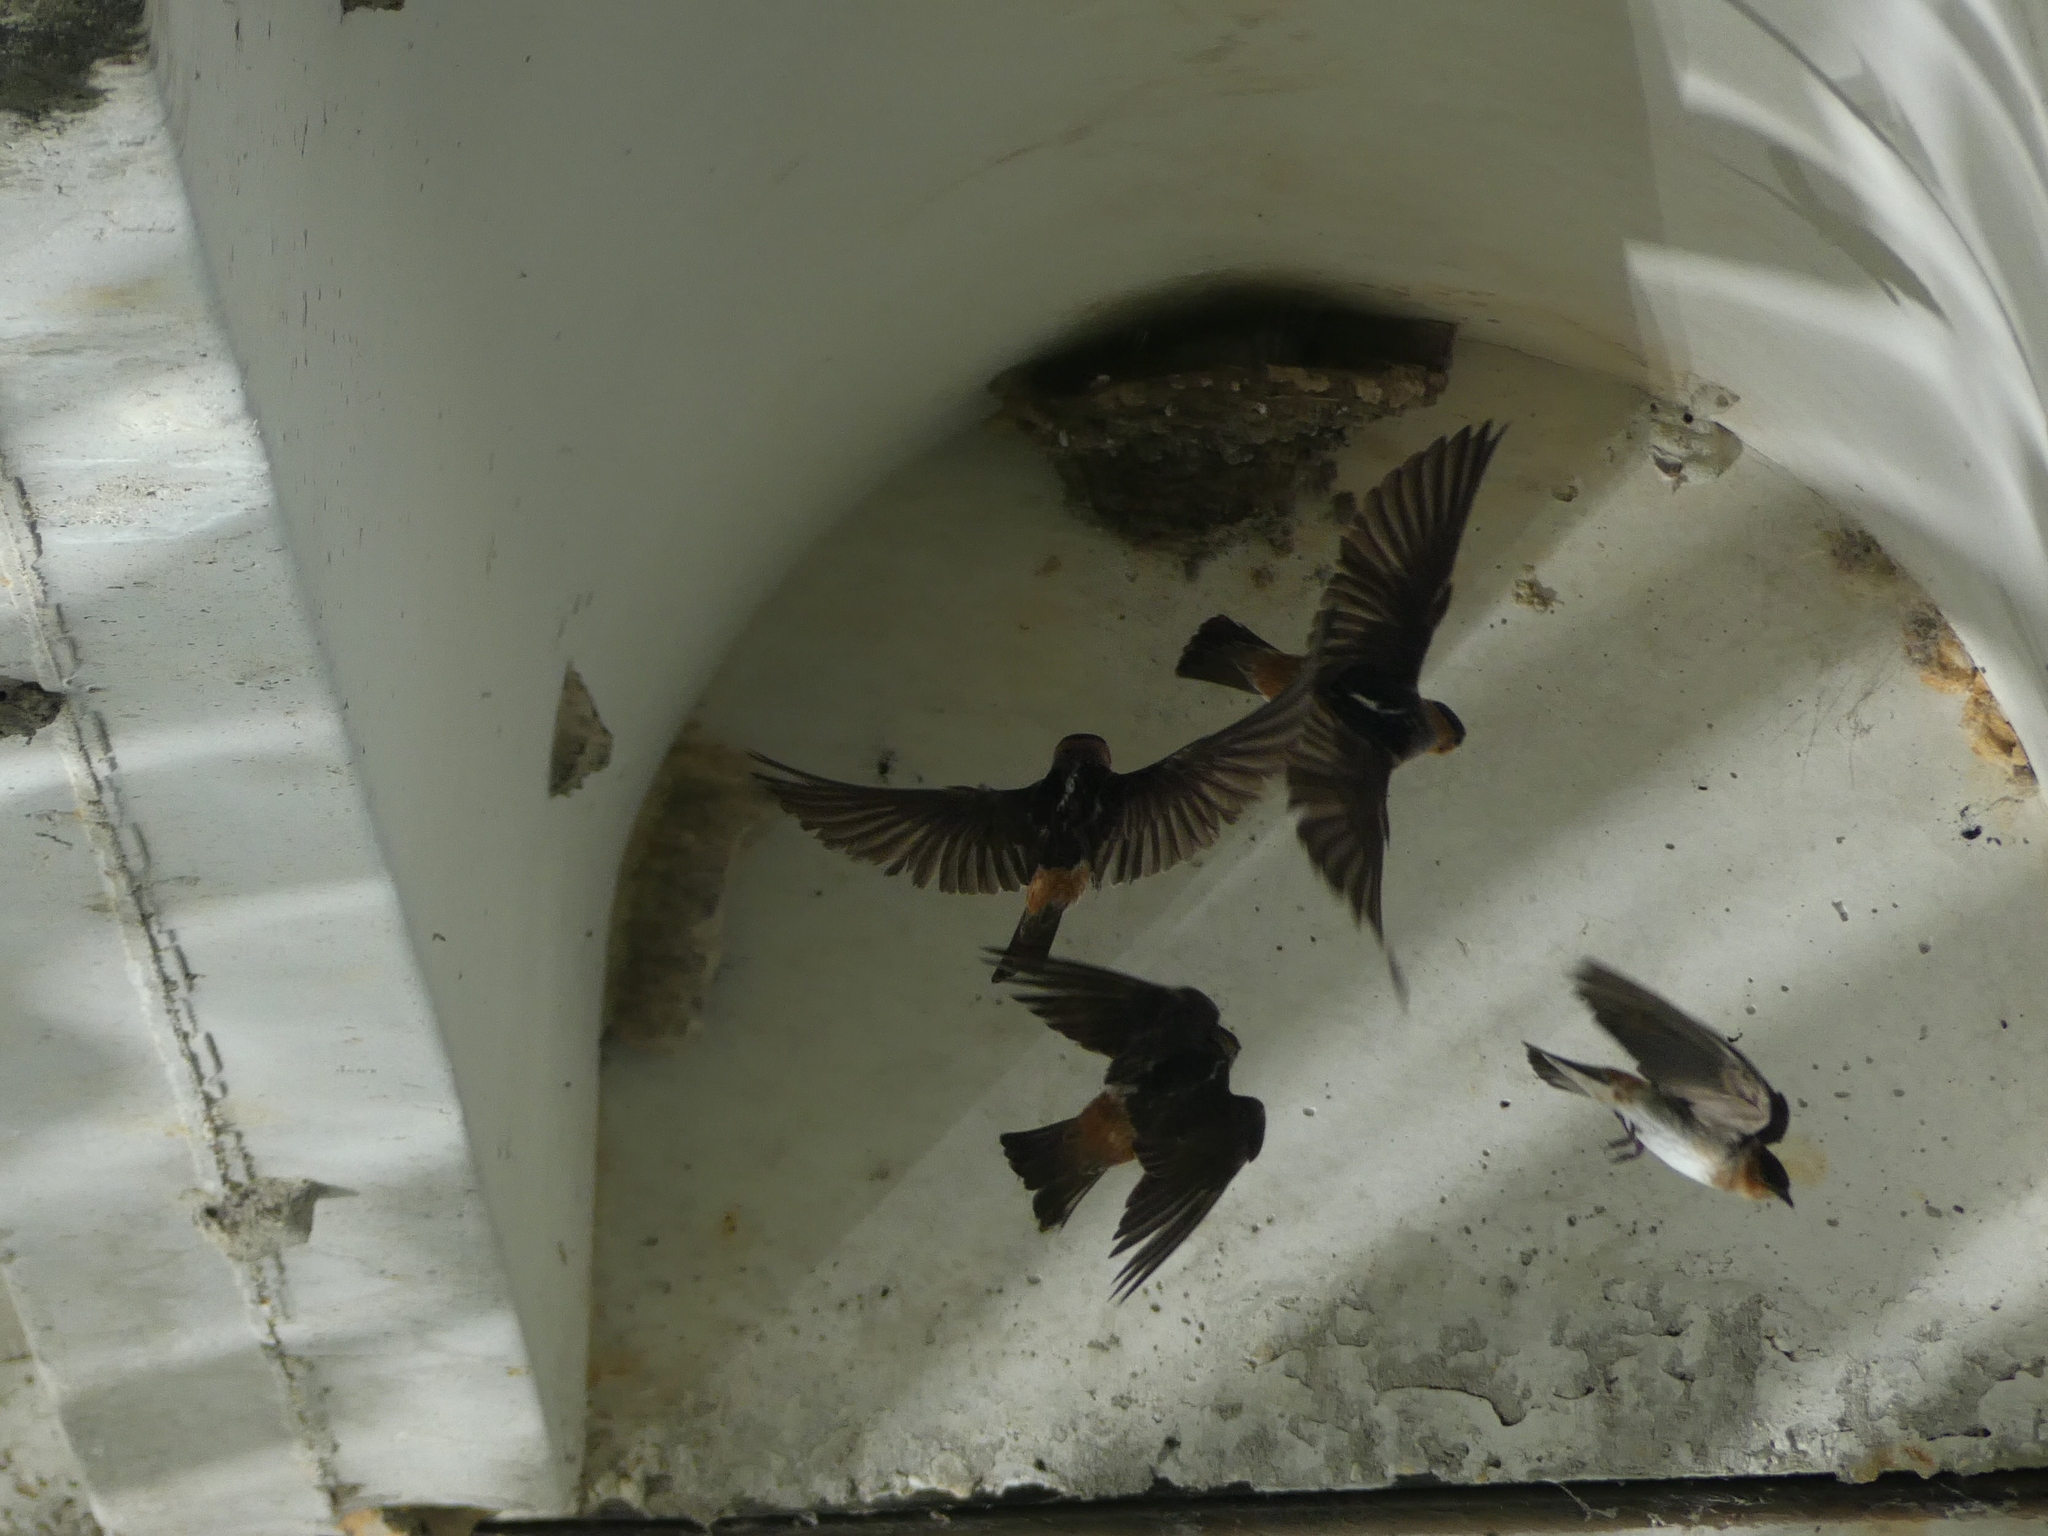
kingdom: Animalia
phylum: Chordata
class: Aves
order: Passeriformes
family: Hirundinidae
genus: Petrochelidon
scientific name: Petrochelidon fulva
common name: Cave swallow
